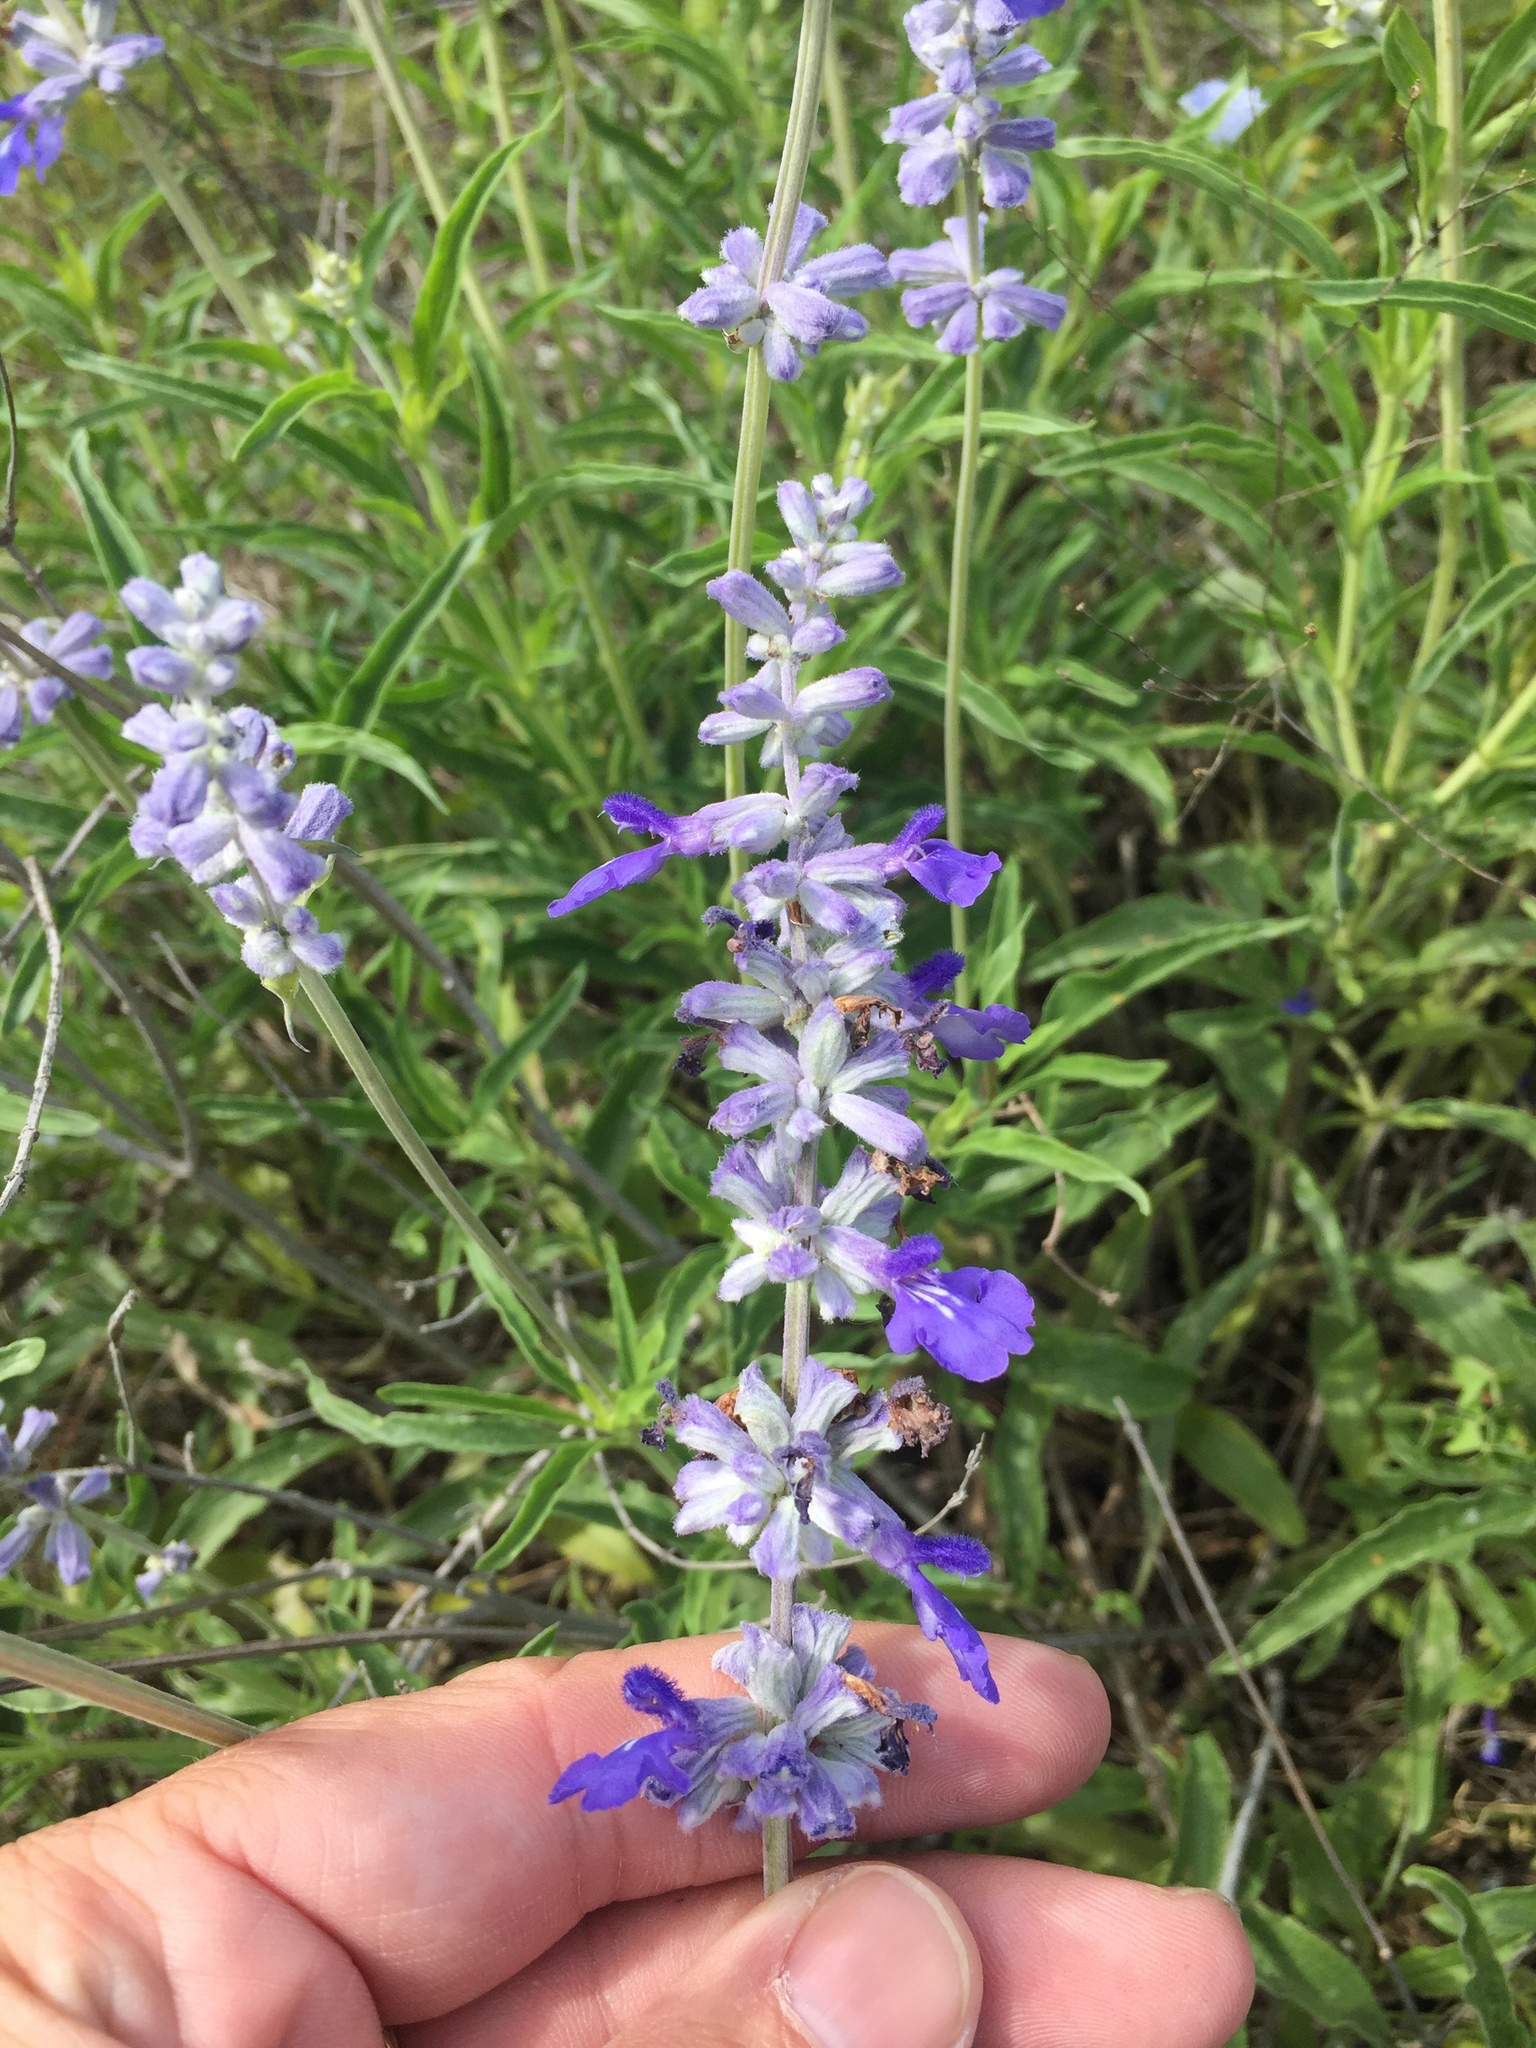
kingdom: Plantae
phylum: Tracheophyta
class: Magnoliopsida
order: Lamiales
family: Lamiaceae
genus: Salvia
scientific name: Salvia farinacea
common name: Mealy sage
